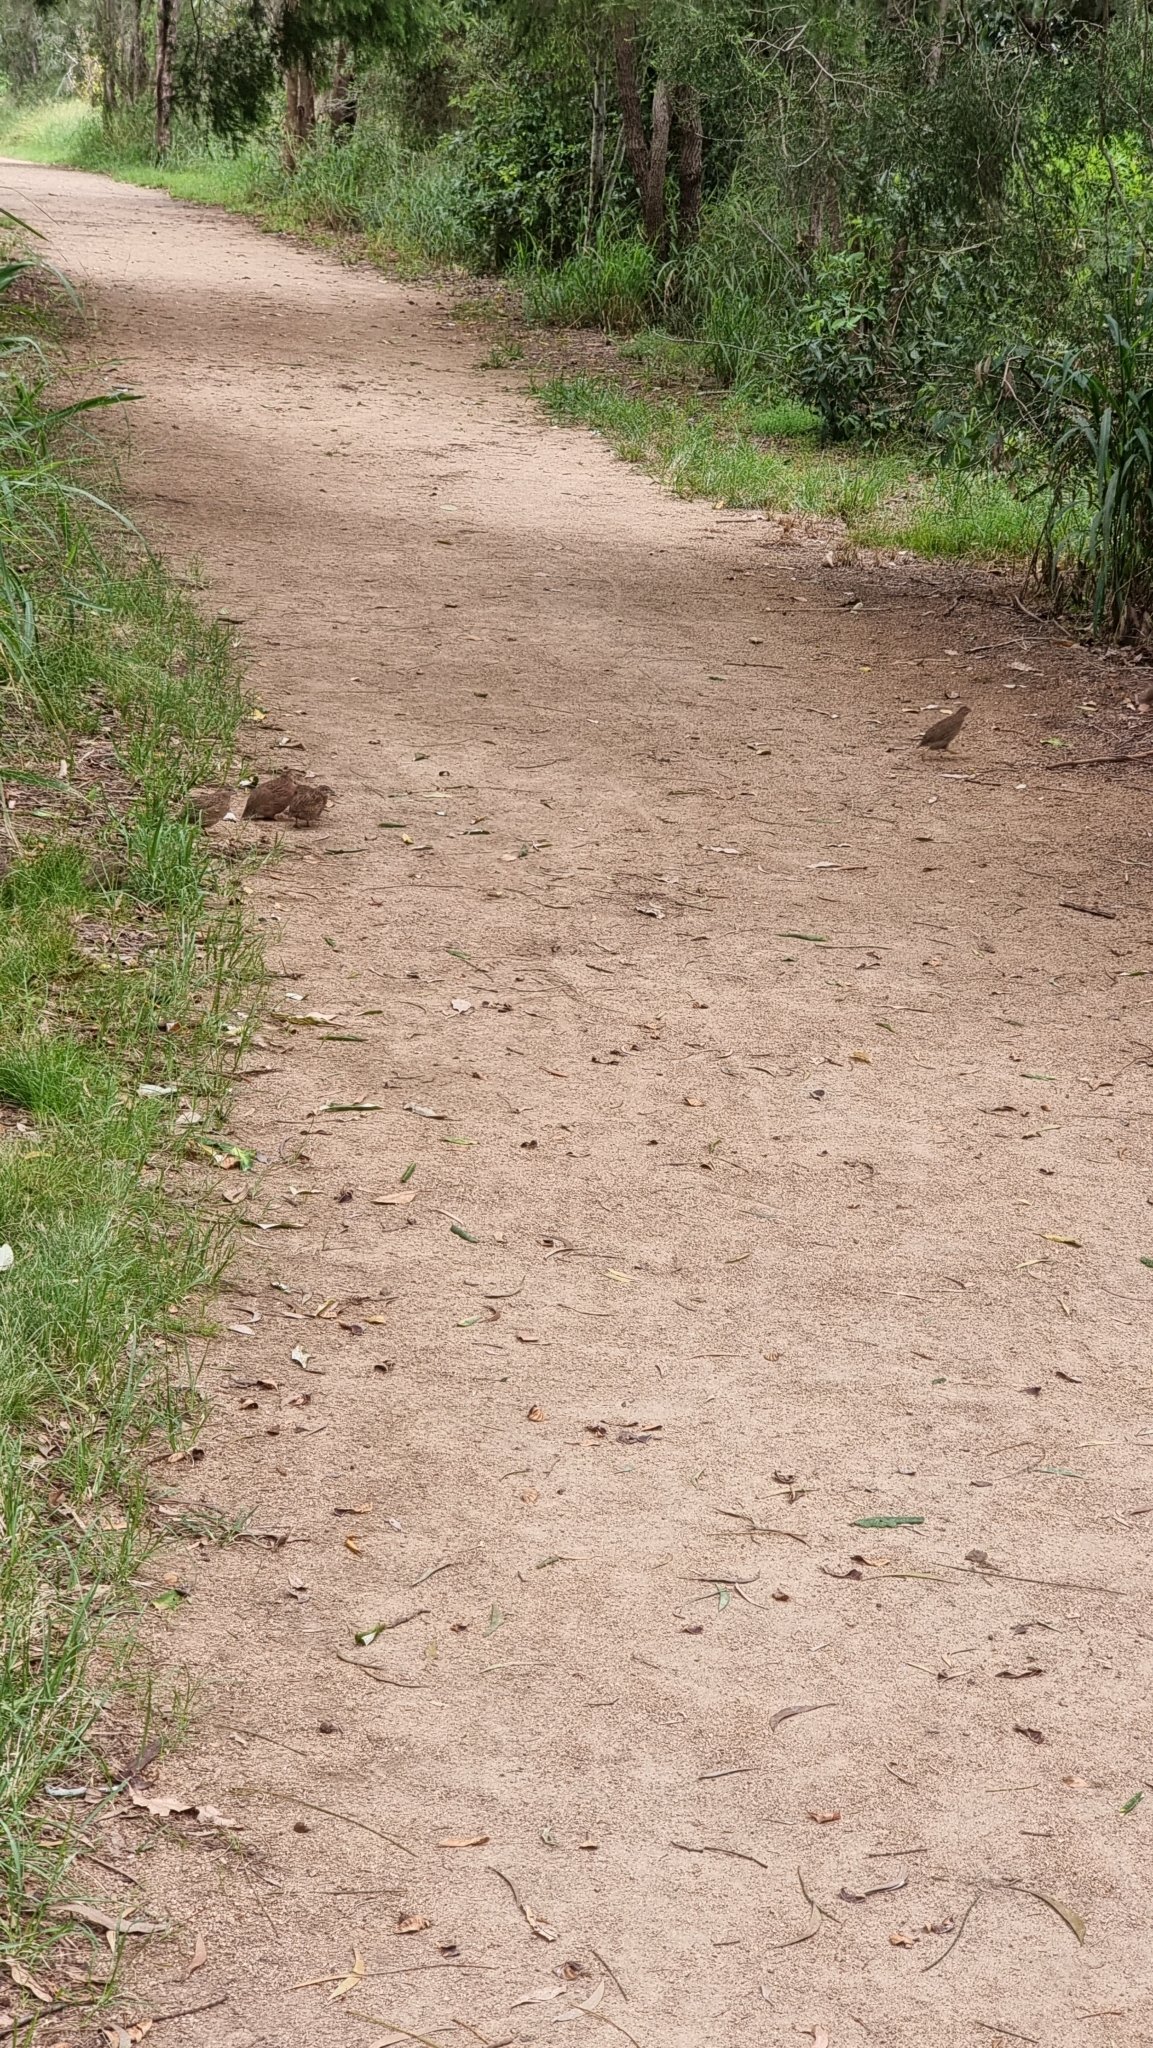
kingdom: Animalia
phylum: Chordata
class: Aves
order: Galliformes
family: Phasianidae
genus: Synoicus
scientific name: Synoicus ypsilophorus
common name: Brown quail
